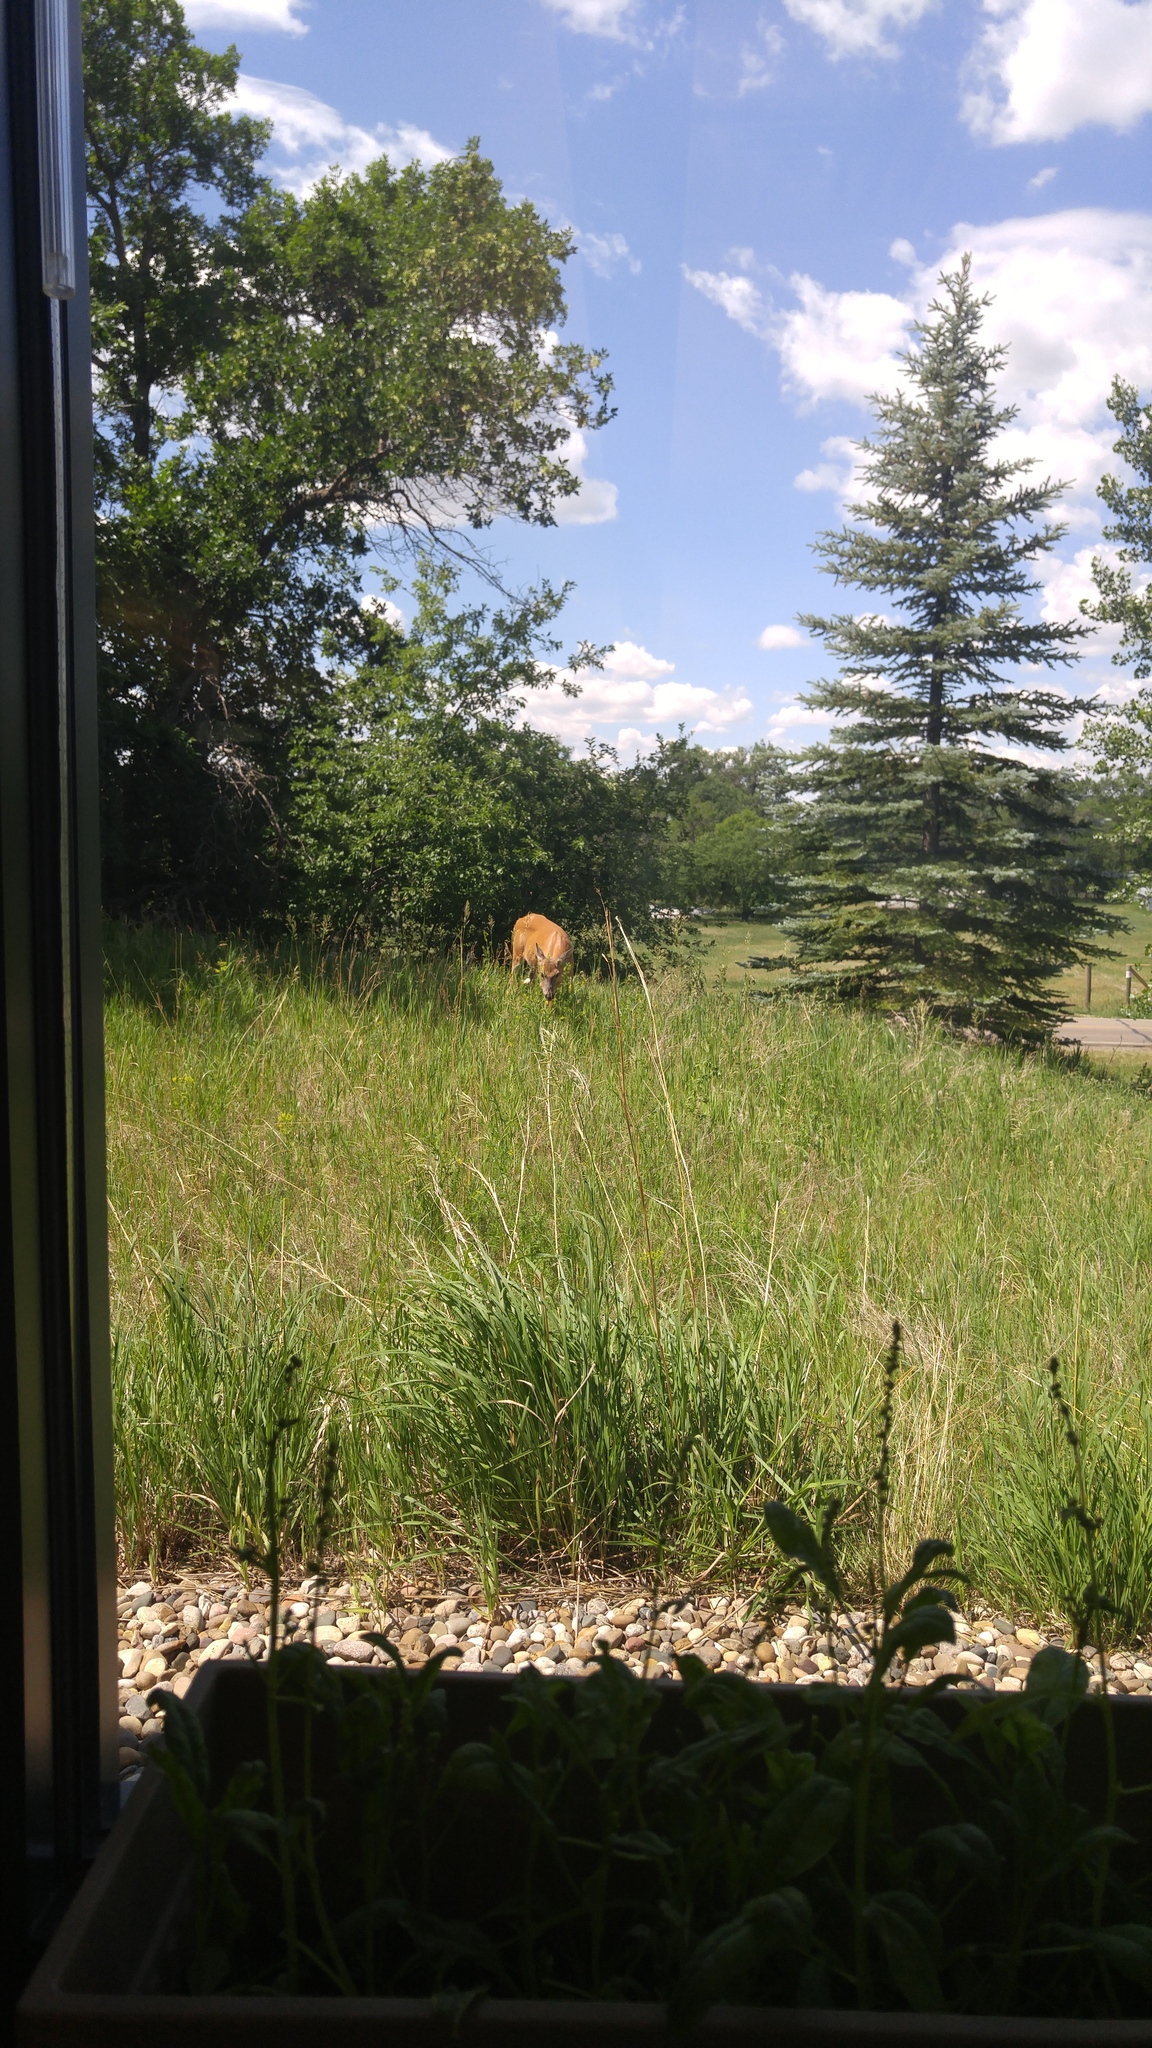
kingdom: Animalia
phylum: Chordata
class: Mammalia
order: Artiodactyla
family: Cervidae
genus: Odocoileus
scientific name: Odocoileus virginianus
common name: White-tailed deer
